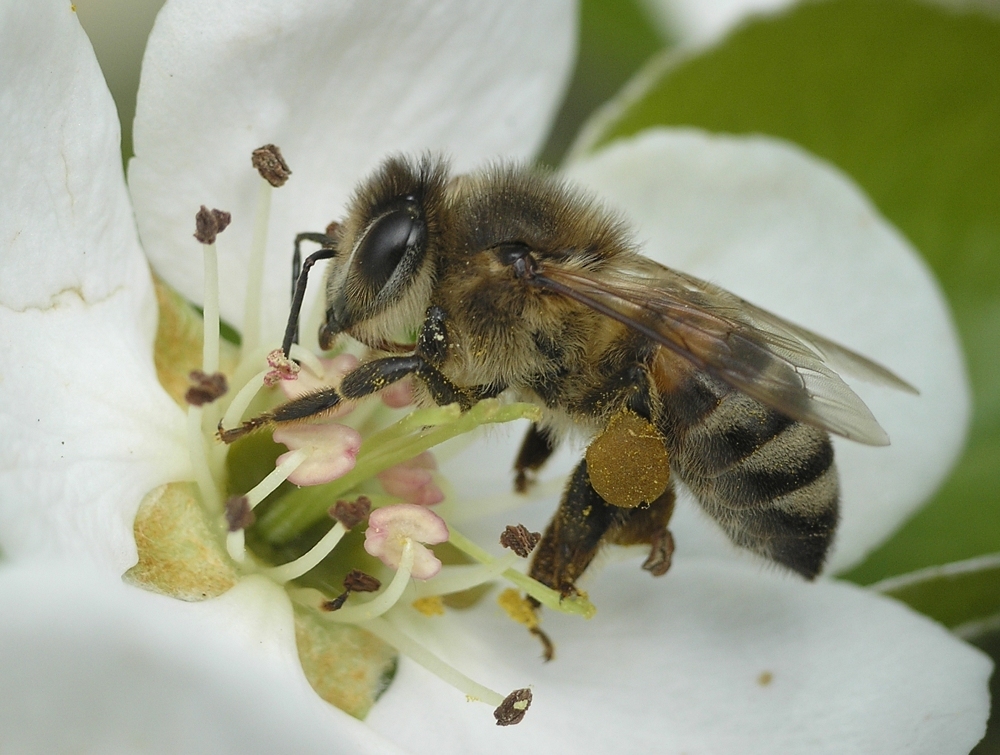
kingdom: Animalia
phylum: Arthropoda
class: Insecta
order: Hymenoptera
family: Apidae
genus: Apis
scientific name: Apis mellifera
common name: Honey bee
